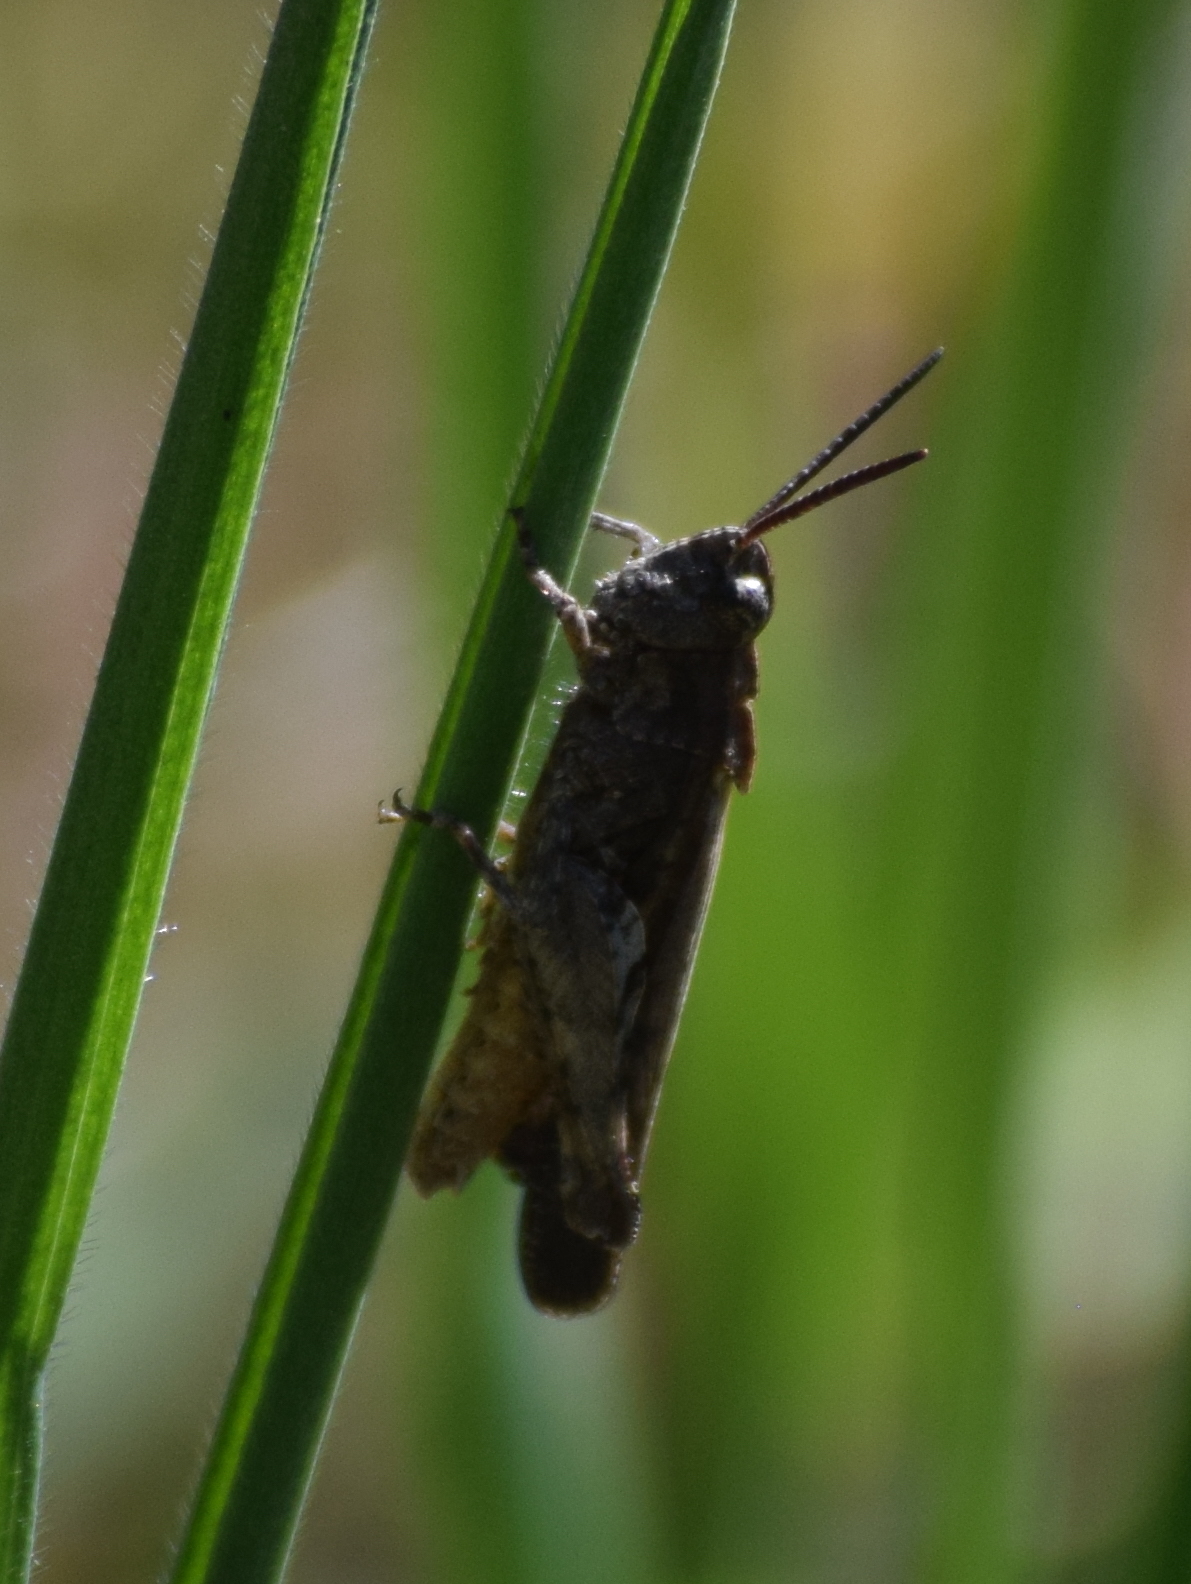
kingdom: Animalia
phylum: Arthropoda
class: Insecta
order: Orthoptera
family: Acrididae
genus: Chimarocephala
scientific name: Chimarocephala pacifica
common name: Painted meadow grasshopper
